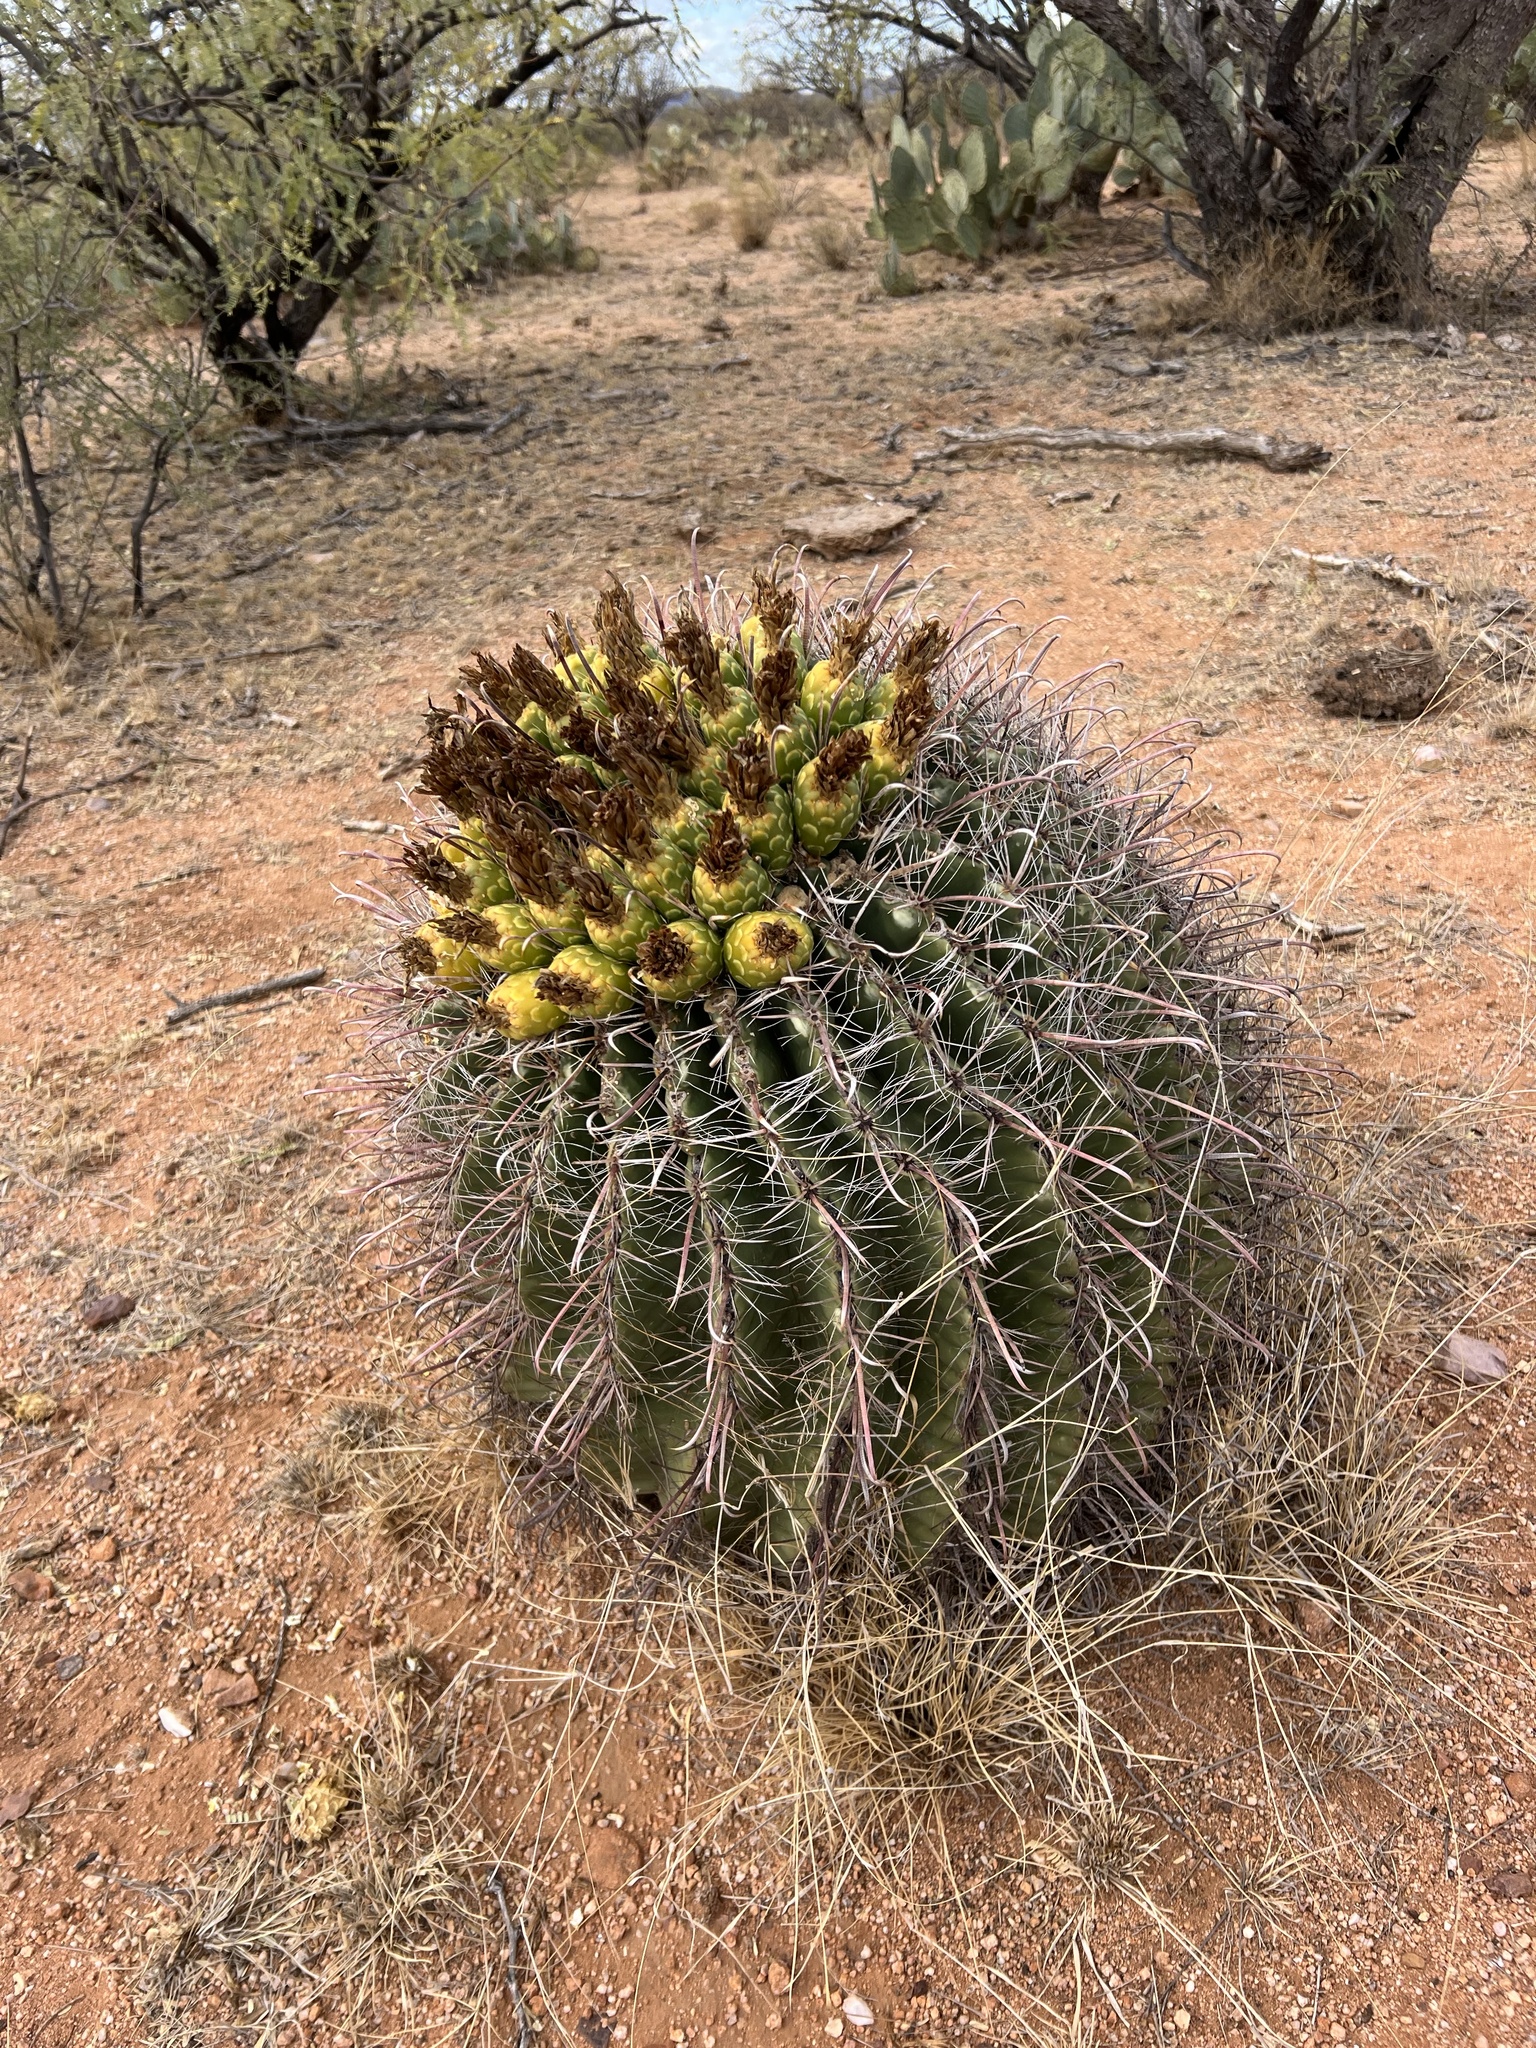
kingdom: Plantae
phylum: Tracheophyta
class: Magnoliopsida
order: Caryophyllales
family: Cactaceae
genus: Ferocactus
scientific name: Ferocactus wislizeni
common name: Candy barrel cactus
